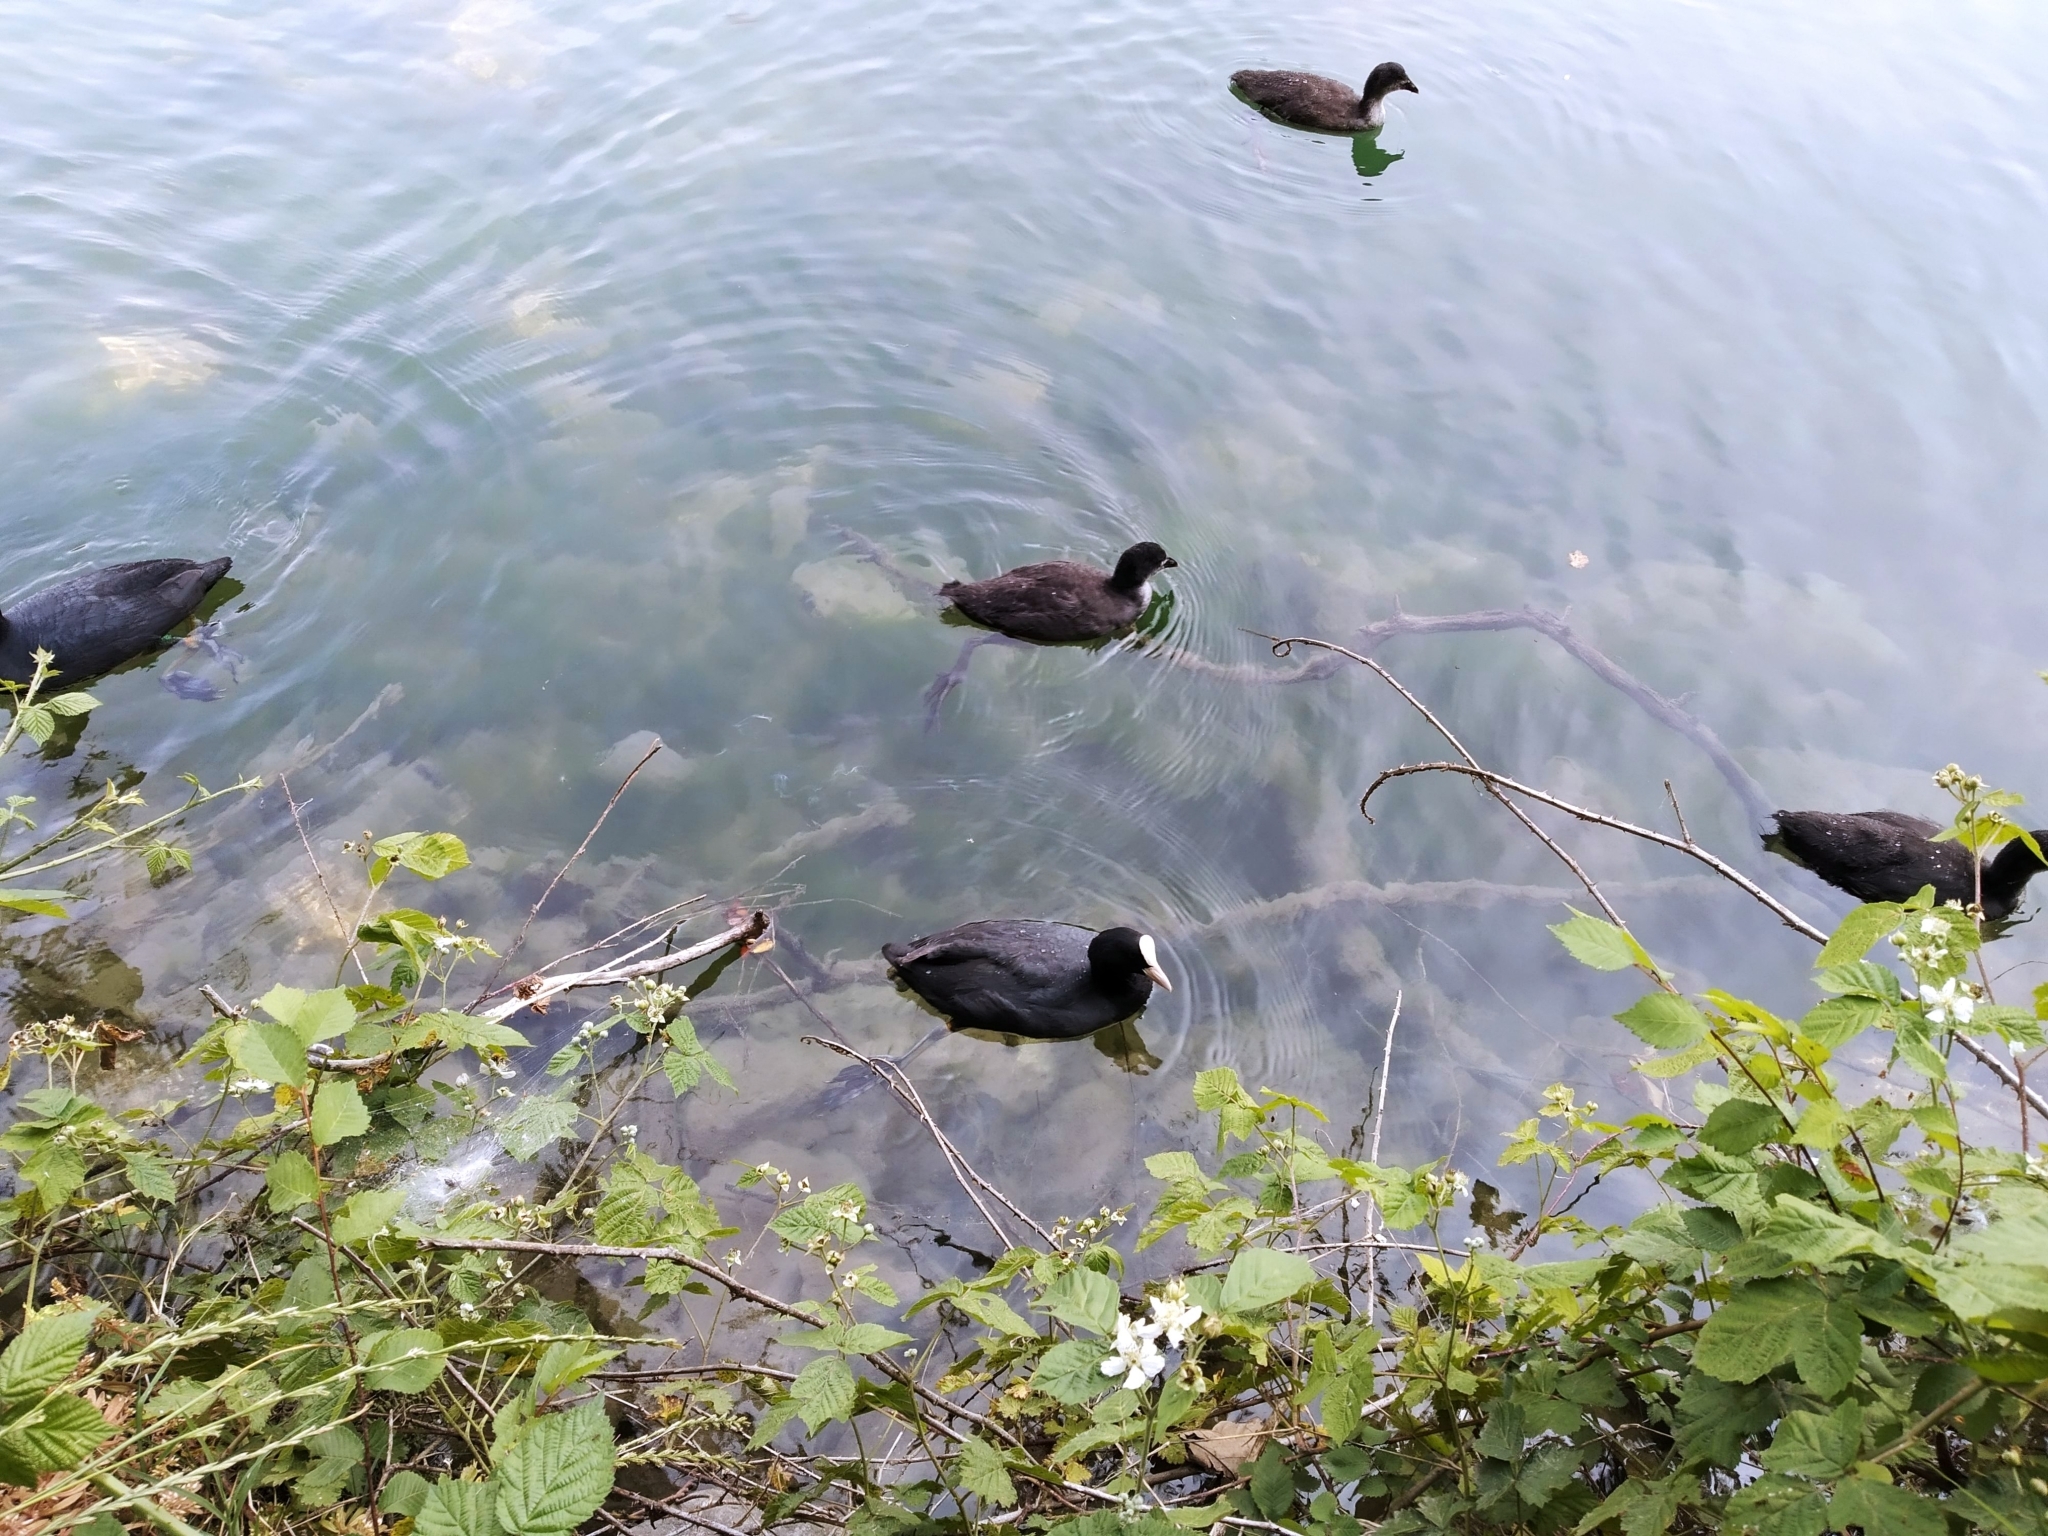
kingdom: Animalia
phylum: Chordata
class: Aves
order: Gruiformes
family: Rallidae
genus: Fulica
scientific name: Fulica atra
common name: Eurasian coot
